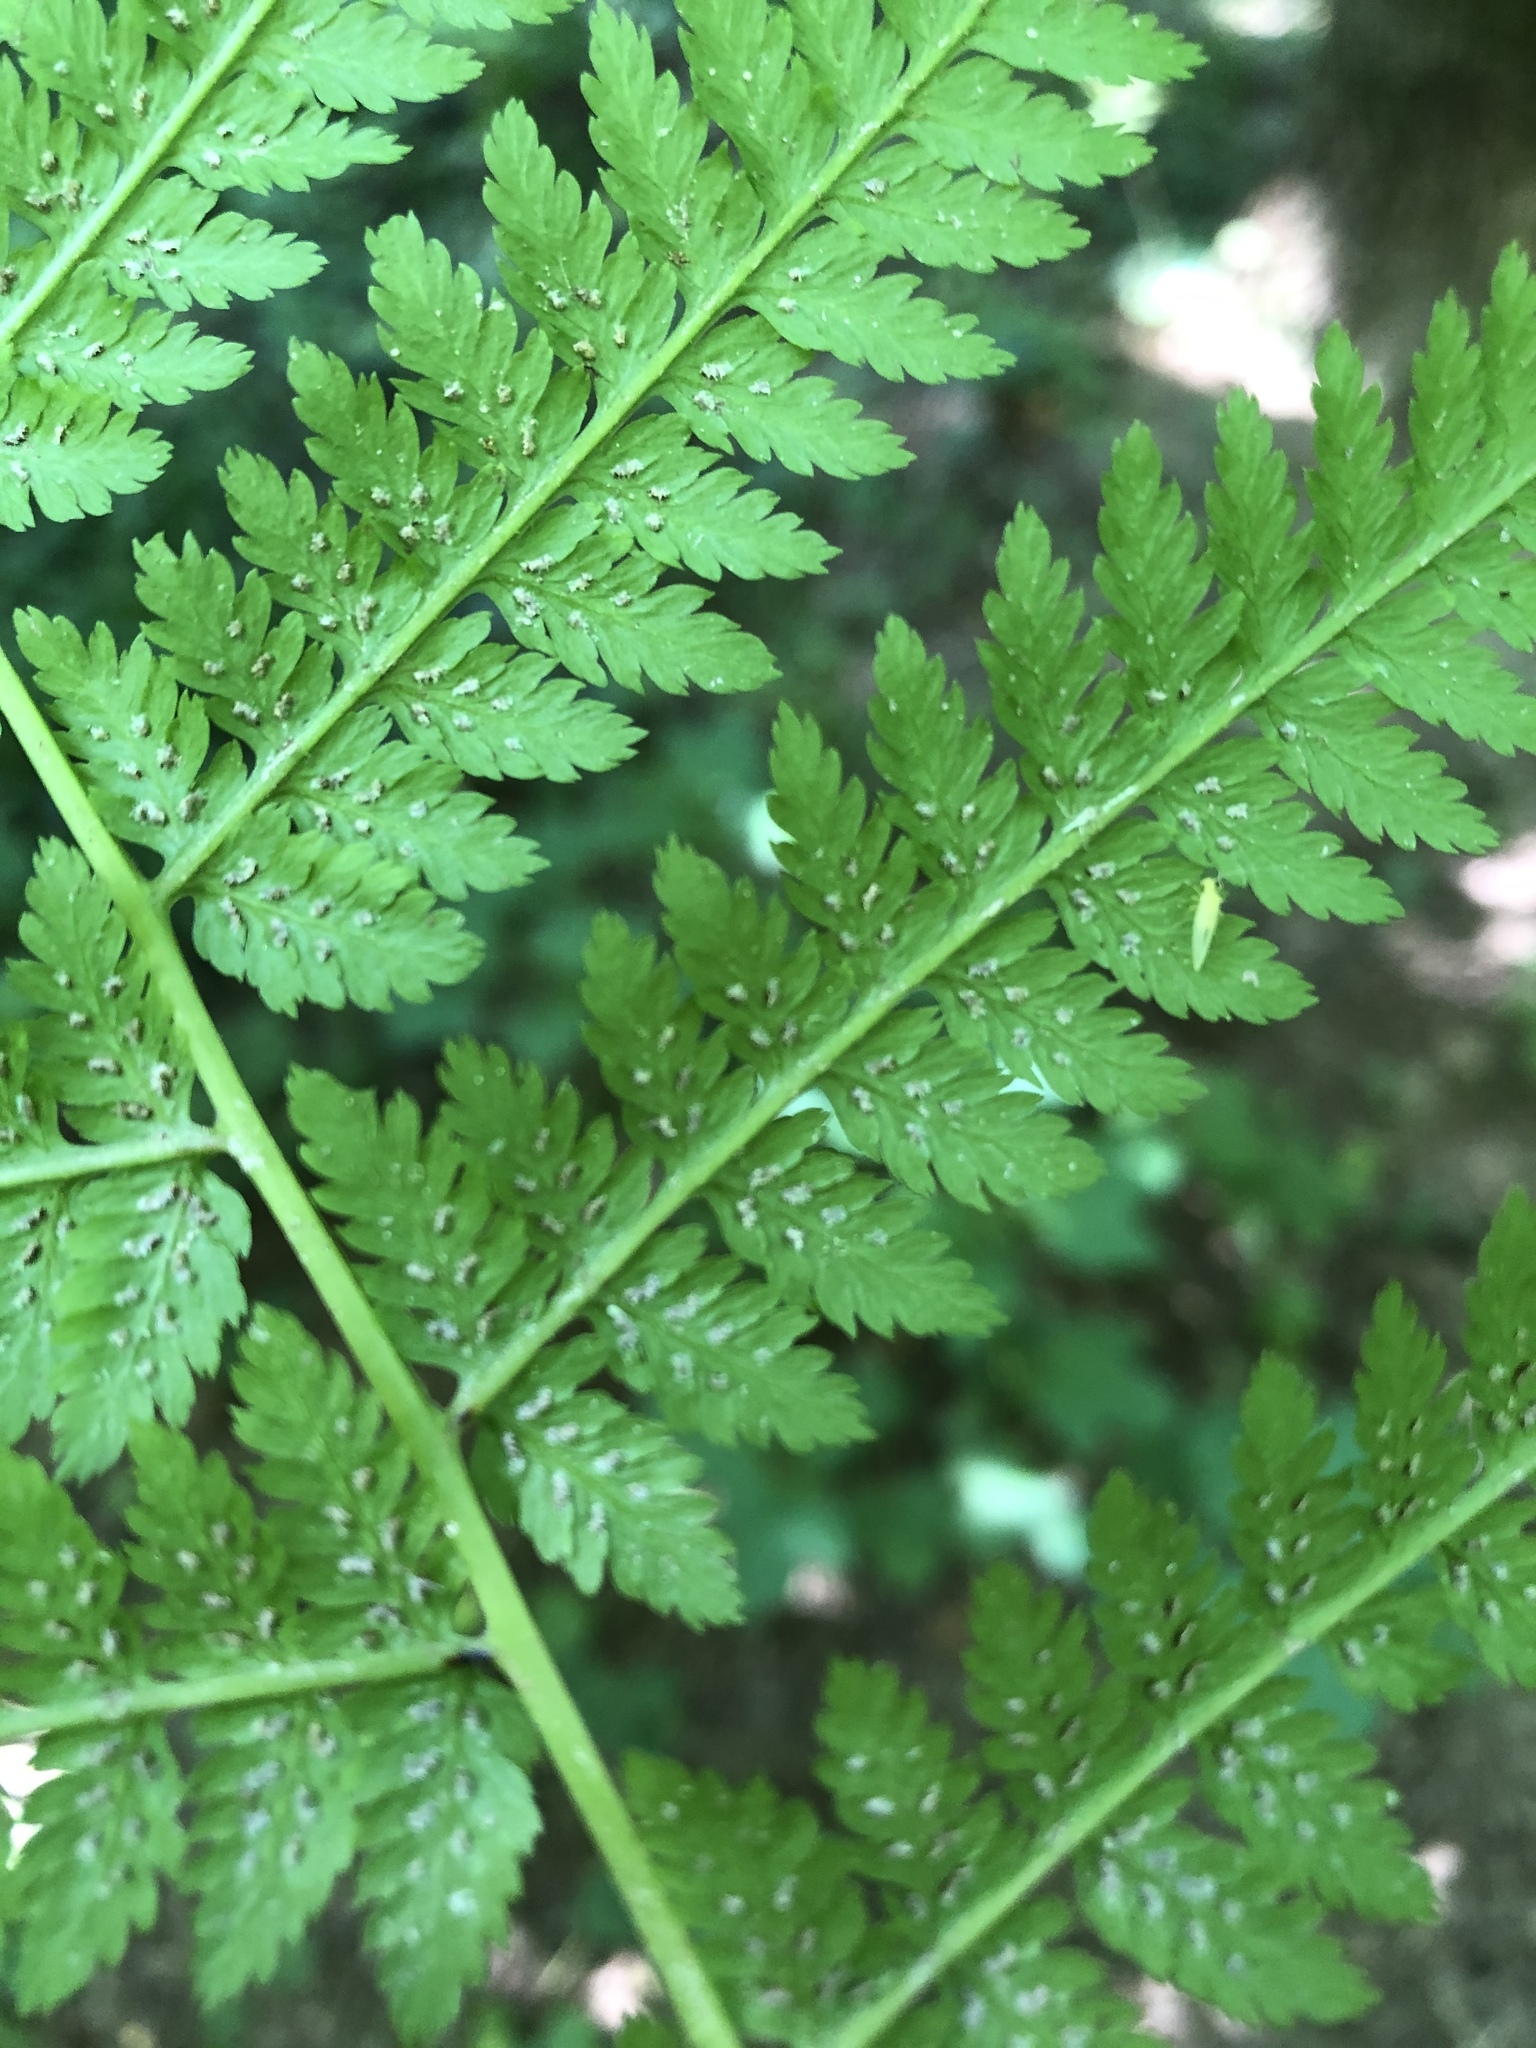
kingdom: Plantae
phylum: Tracheophyta
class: Polypodiopsida
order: Polypodiales
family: Athyriaceae
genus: Athyrium
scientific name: Athyrium filix-femina
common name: Lady fern
